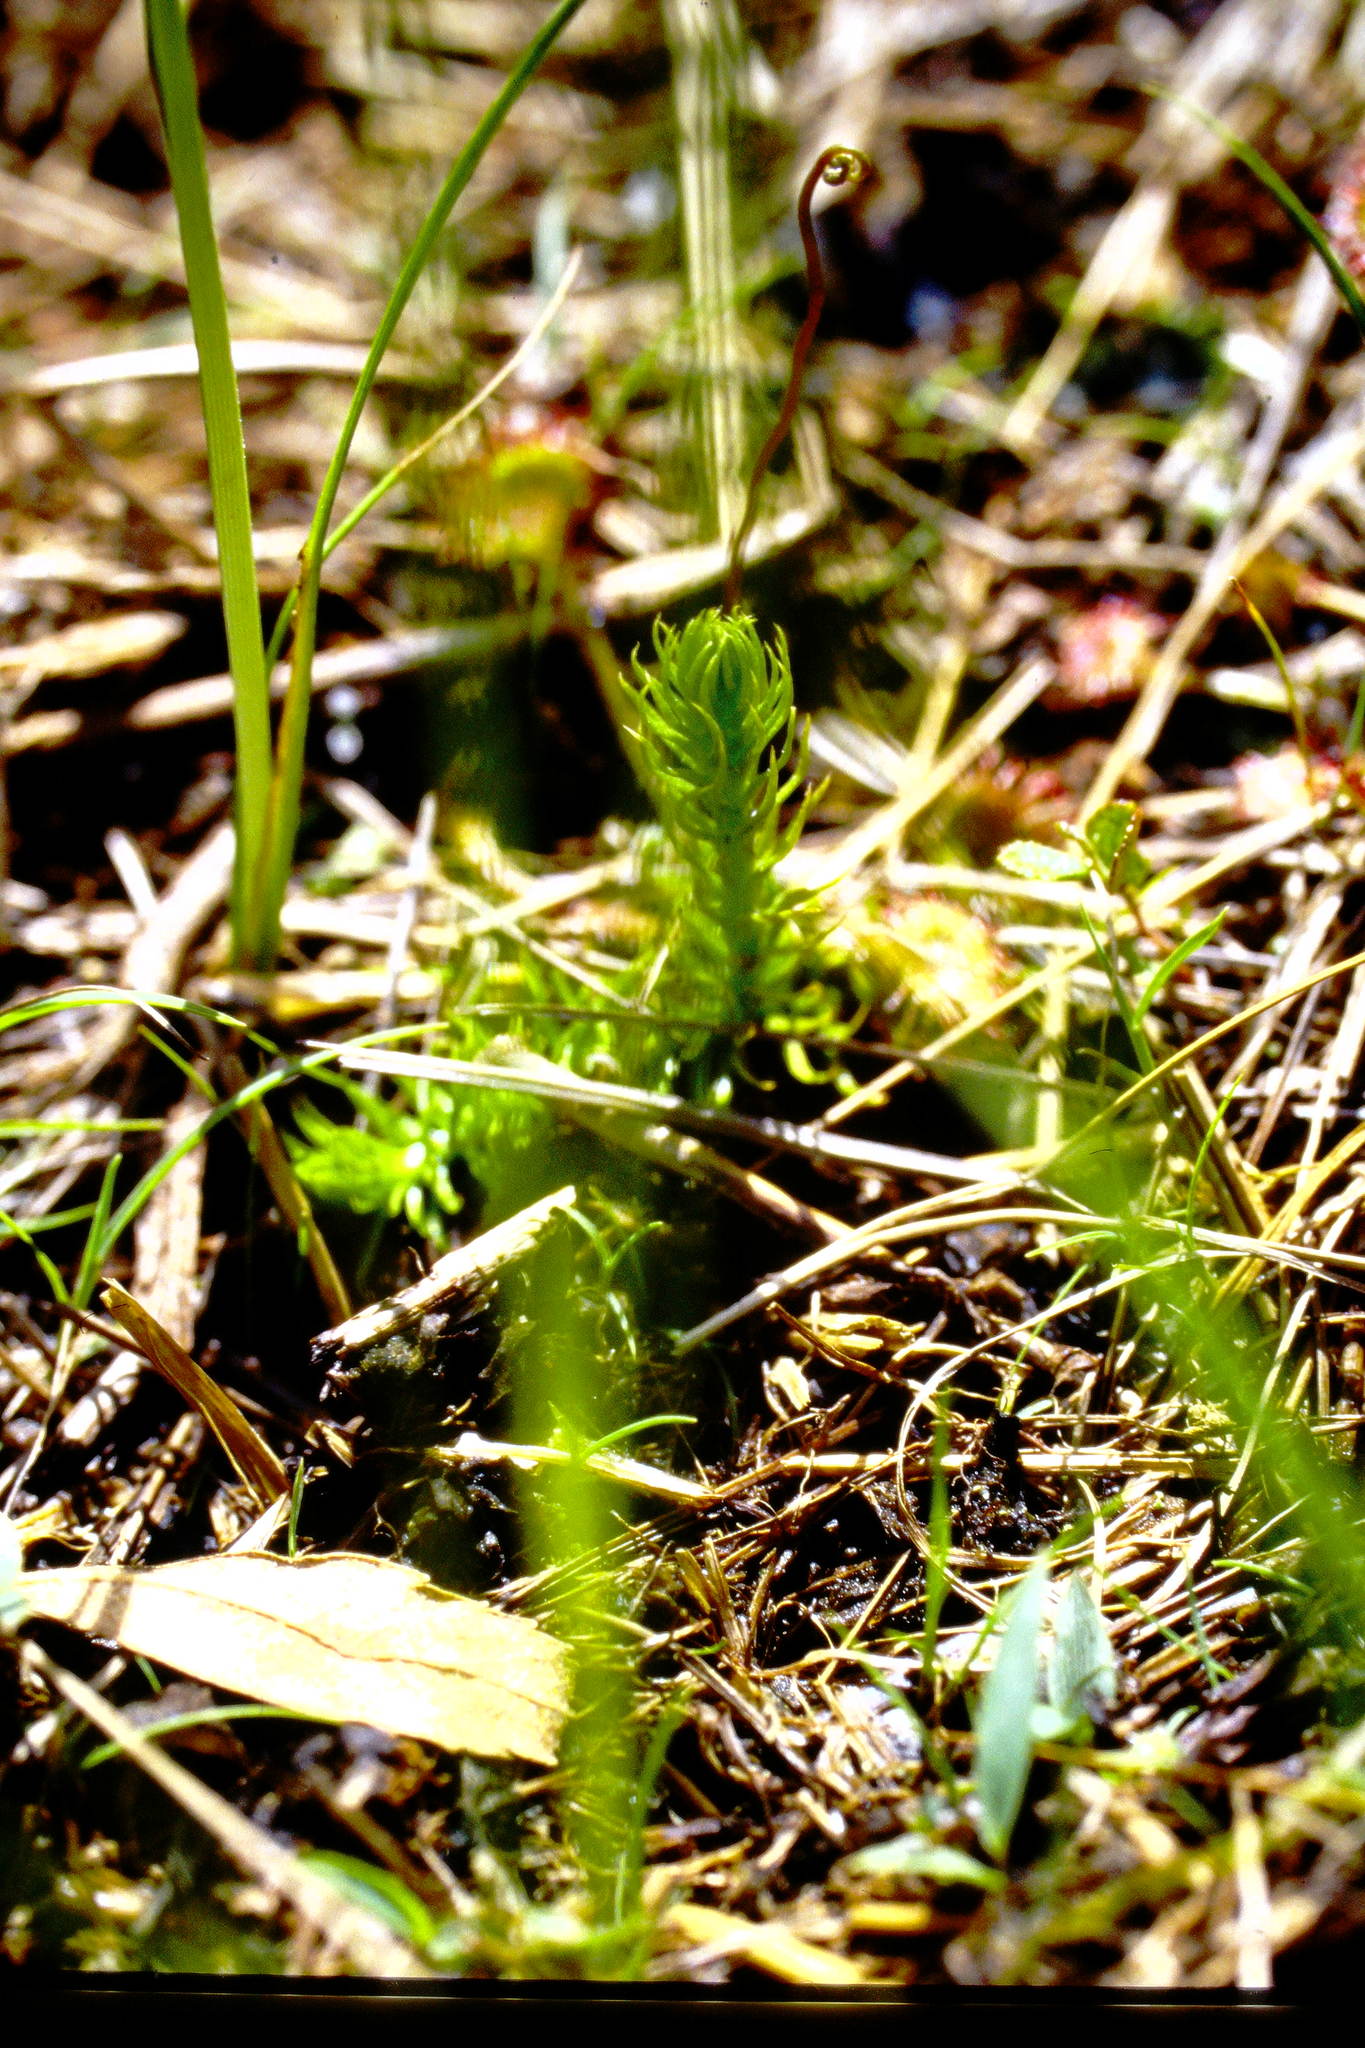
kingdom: Plantae
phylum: Tracheophyta
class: Lycopodiopsida
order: Lycopodiales
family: Lycopodiaceae
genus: Lycopodiella
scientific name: Lycopodiella inundata
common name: Marsh clubmoss
